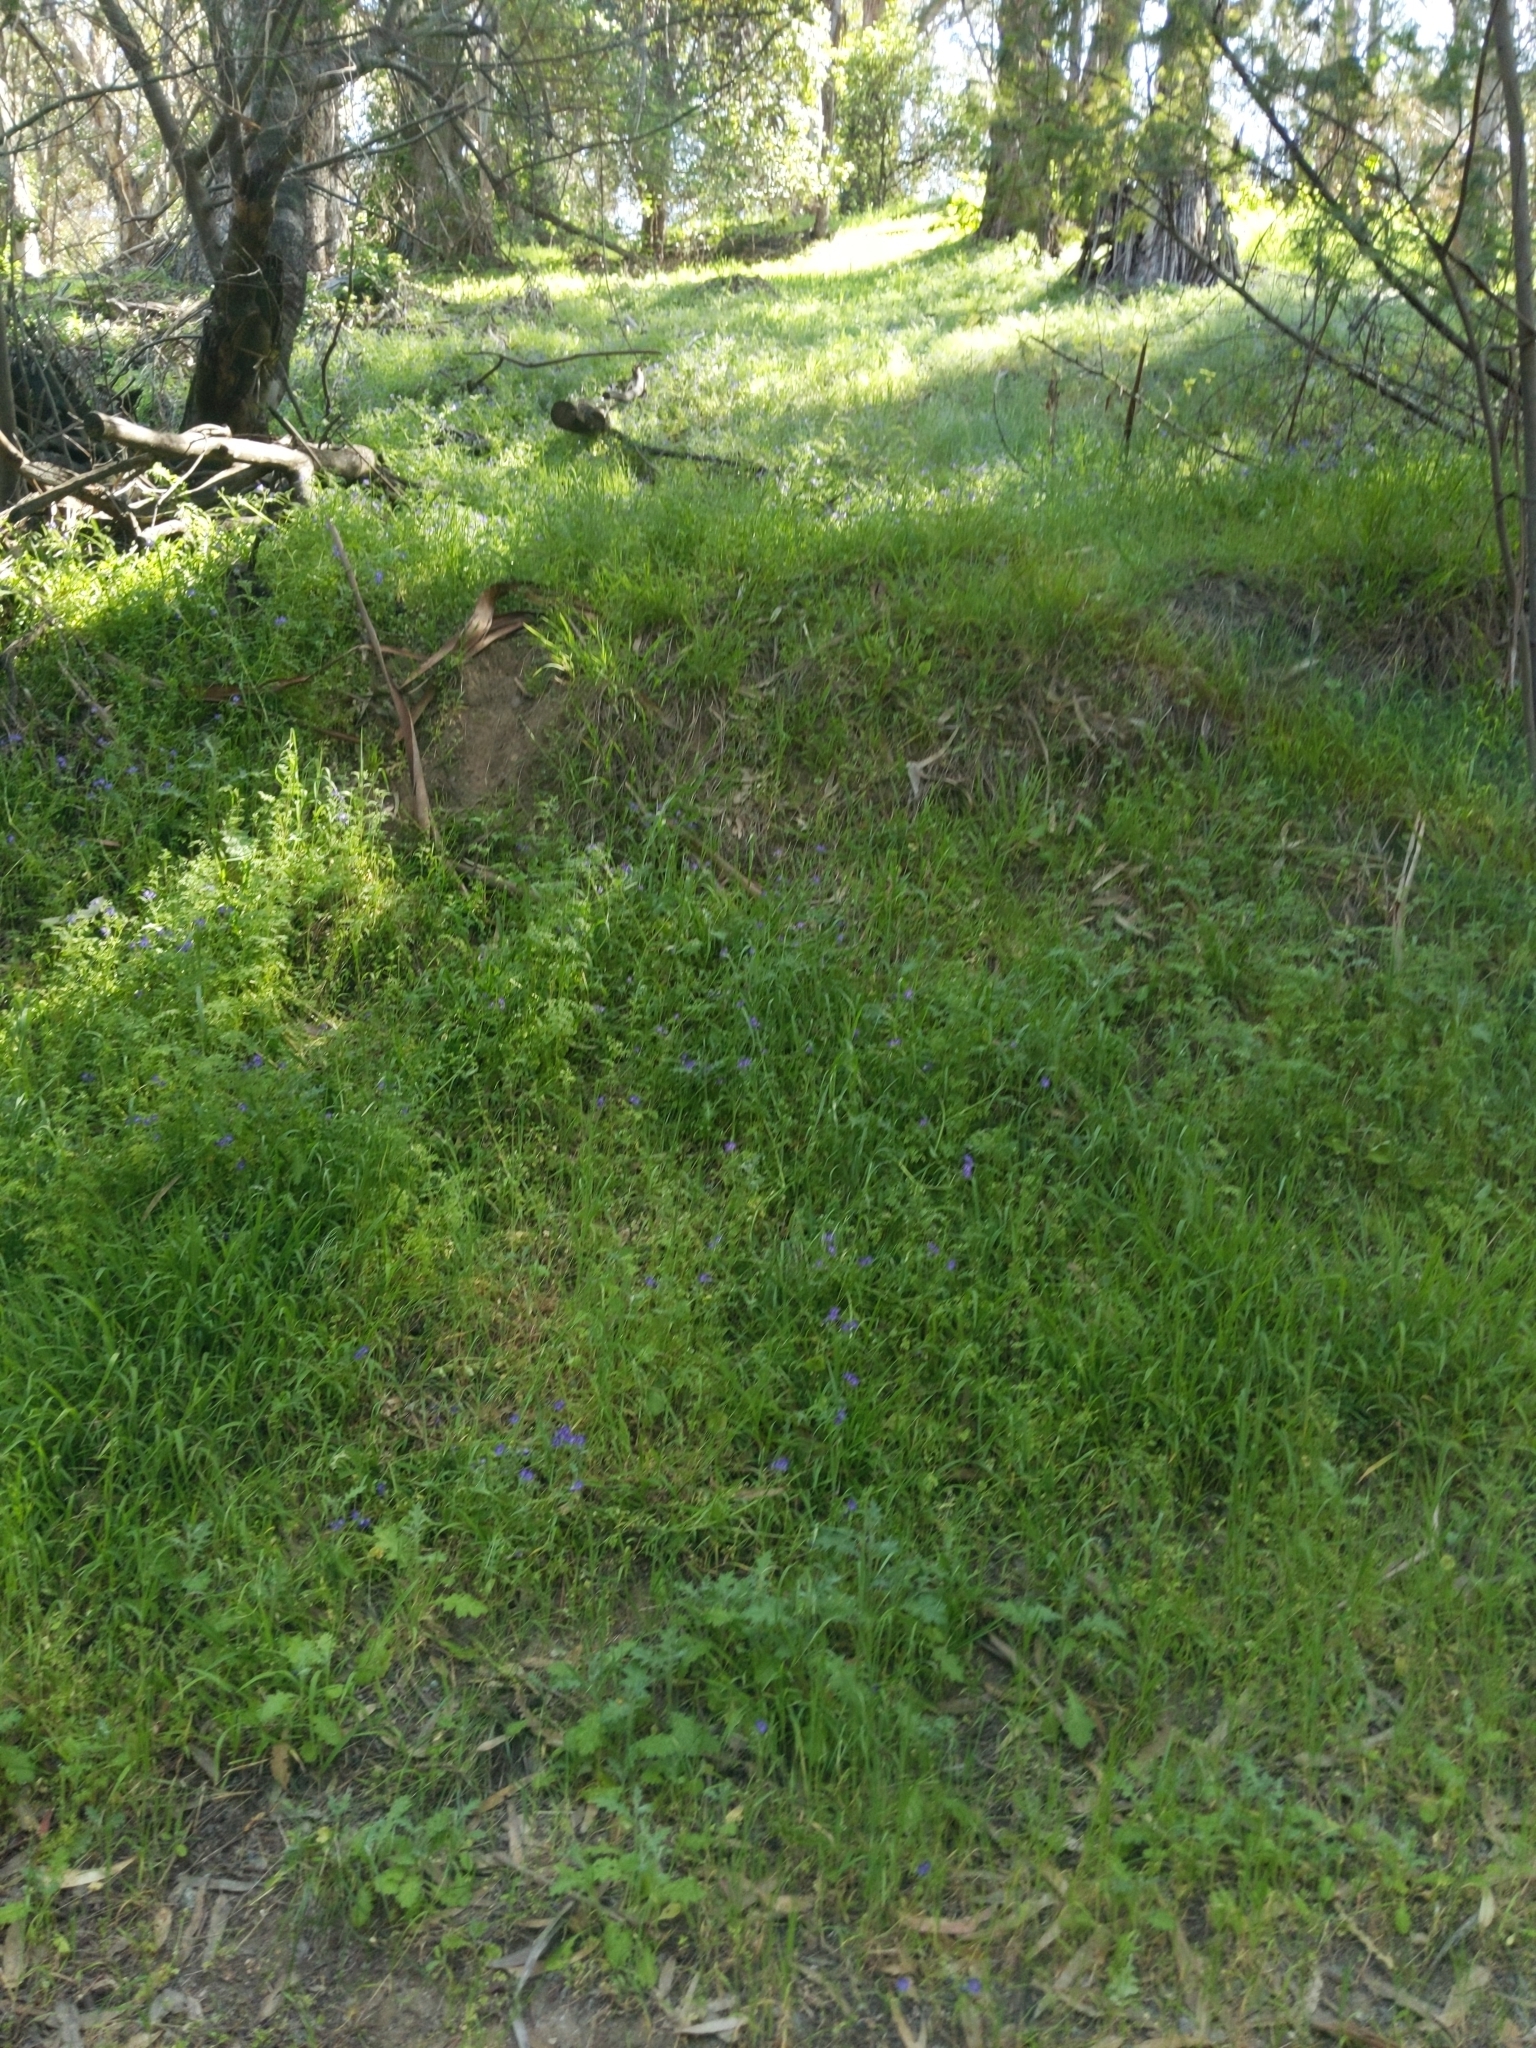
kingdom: Plantae
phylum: Tracheophyta
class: Magnoliopsida
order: Boraginales
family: Hydrophyllaceae
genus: Pholistoma
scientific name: Pholistoma auritum
